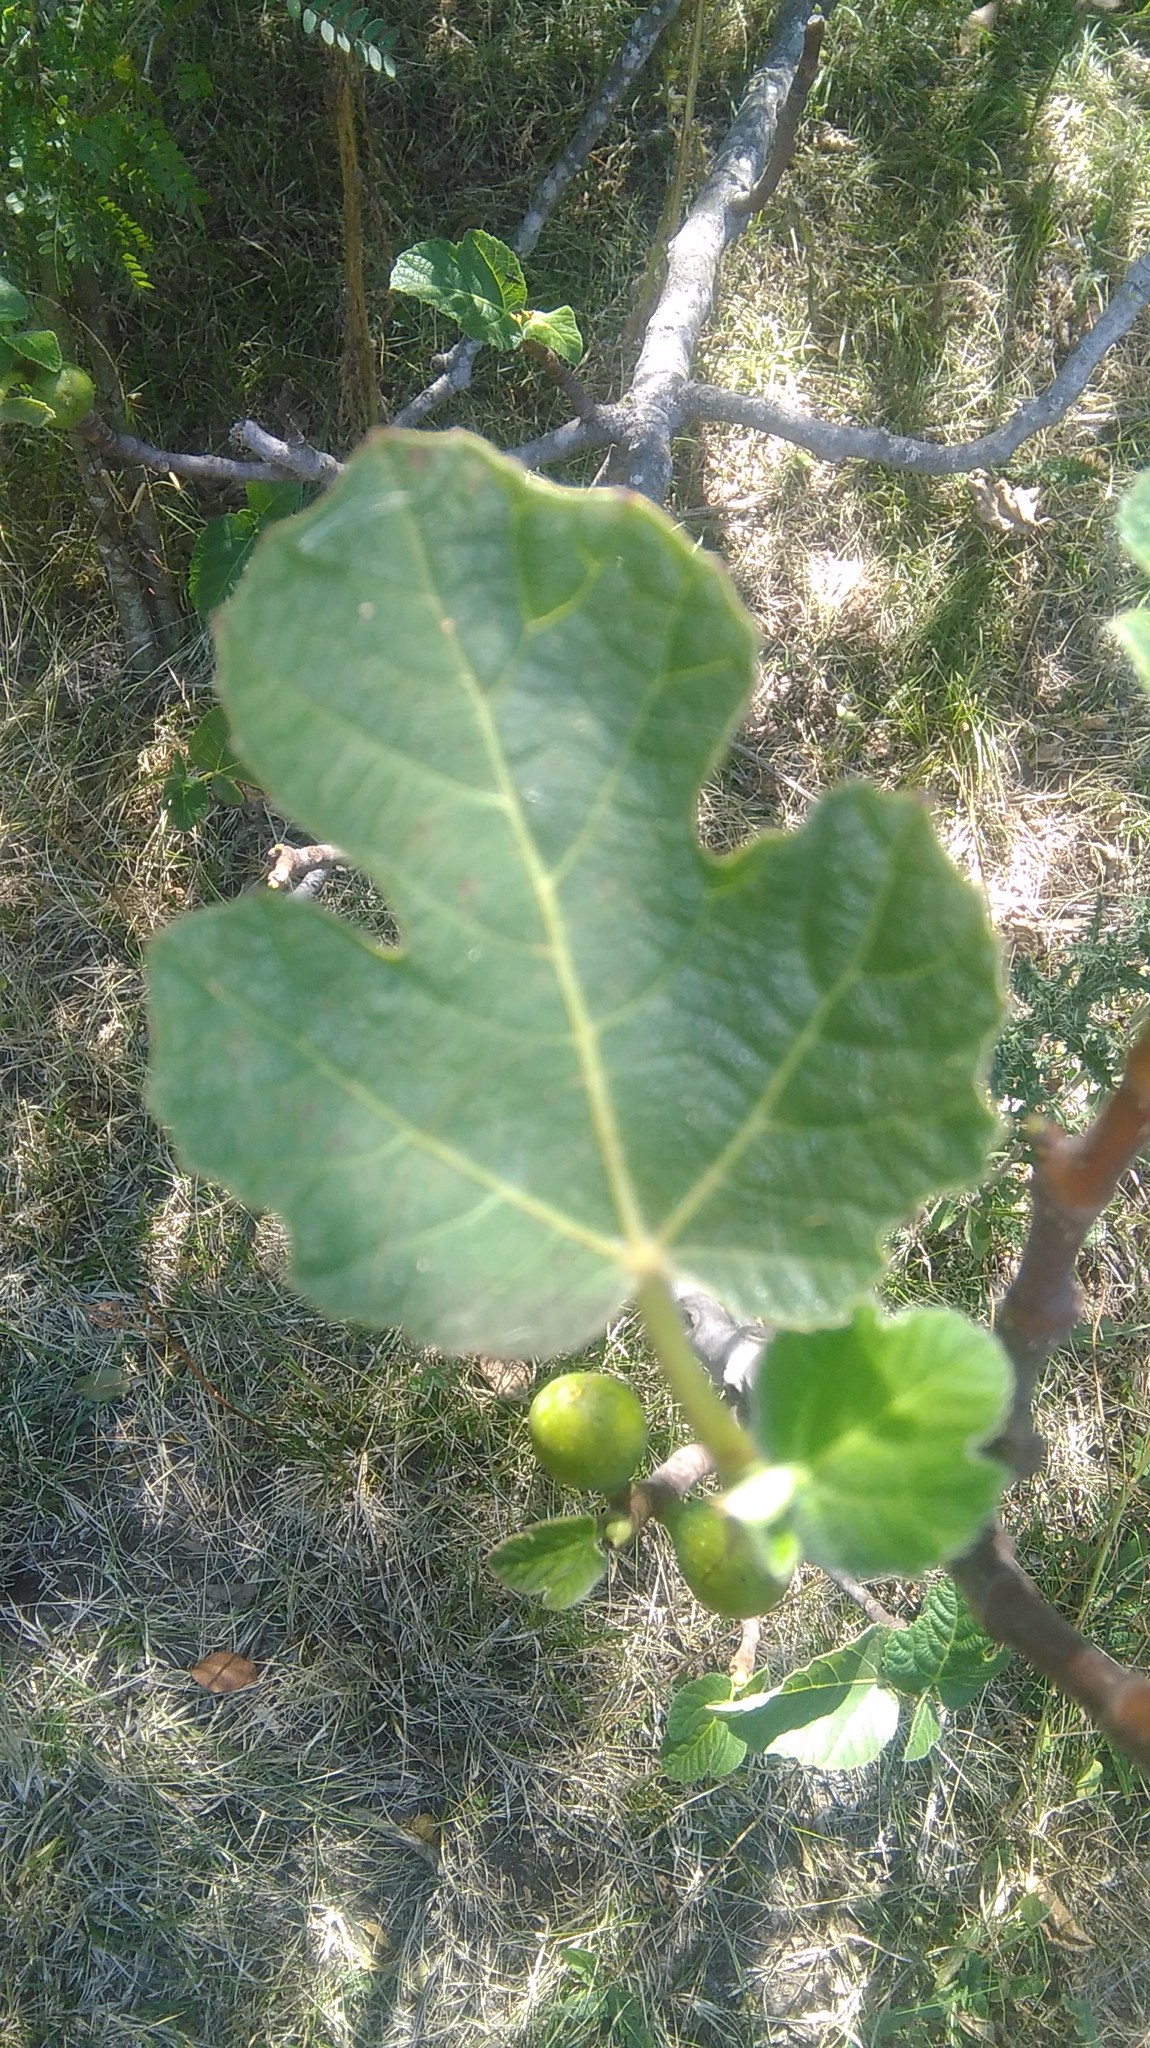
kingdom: Plantae
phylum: Tracheophyta
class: Magnoliopsida
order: Rosales
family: Moraceae
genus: Ficus
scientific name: Ficus carica
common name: Fig
